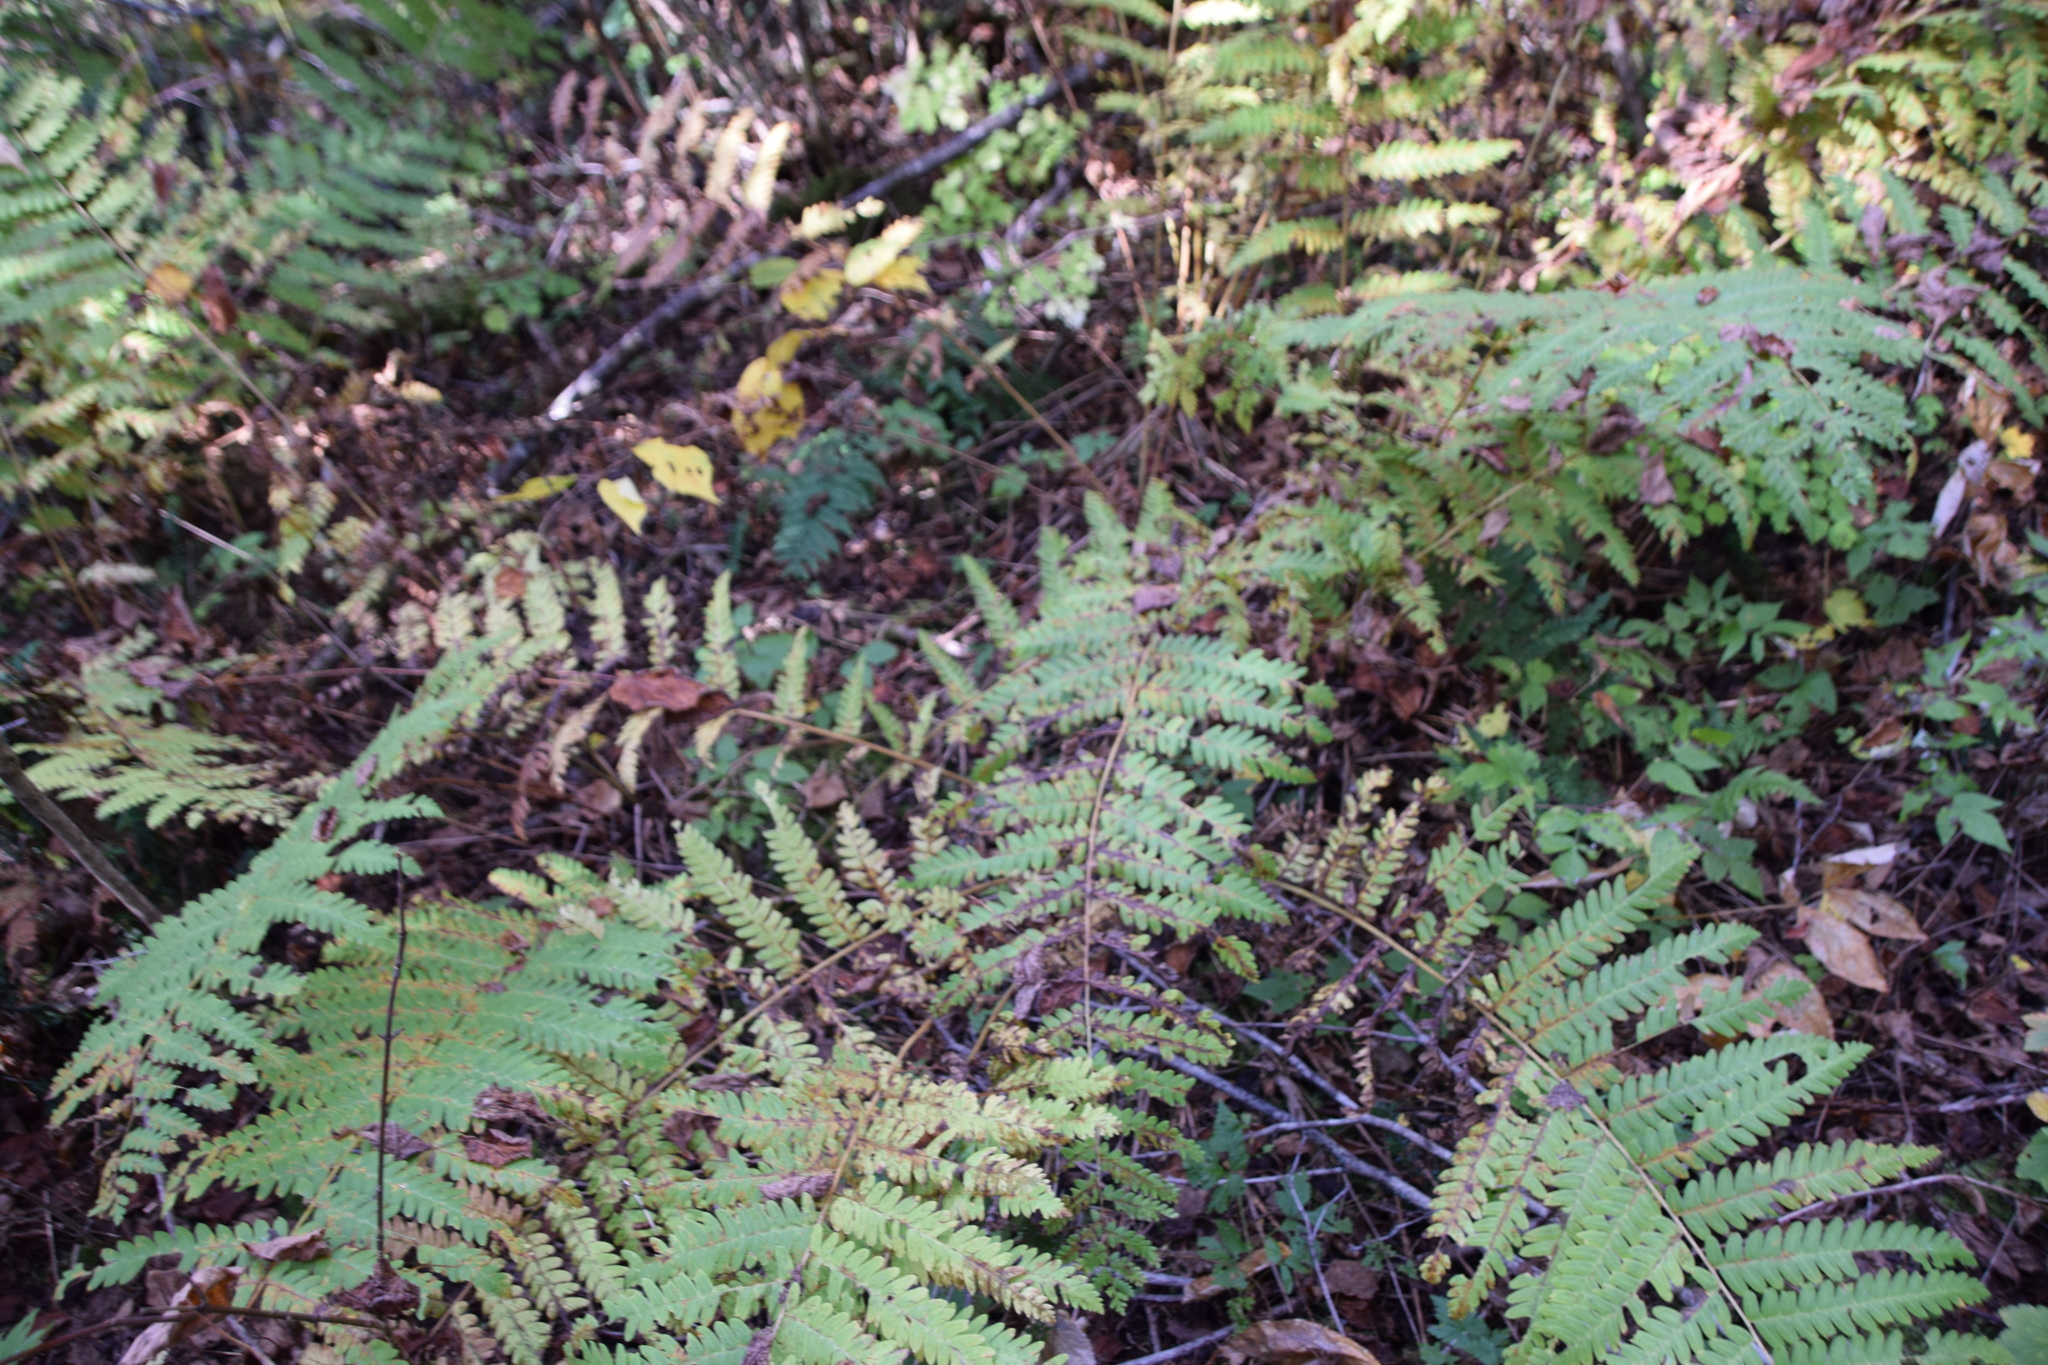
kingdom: Plantae
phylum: Tracheophyta
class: Polypodiopsida
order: Osmundales
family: Osmundaceae
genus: Claytosmunda
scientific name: Claytosmunda claytoniana
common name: Clayton's fern
